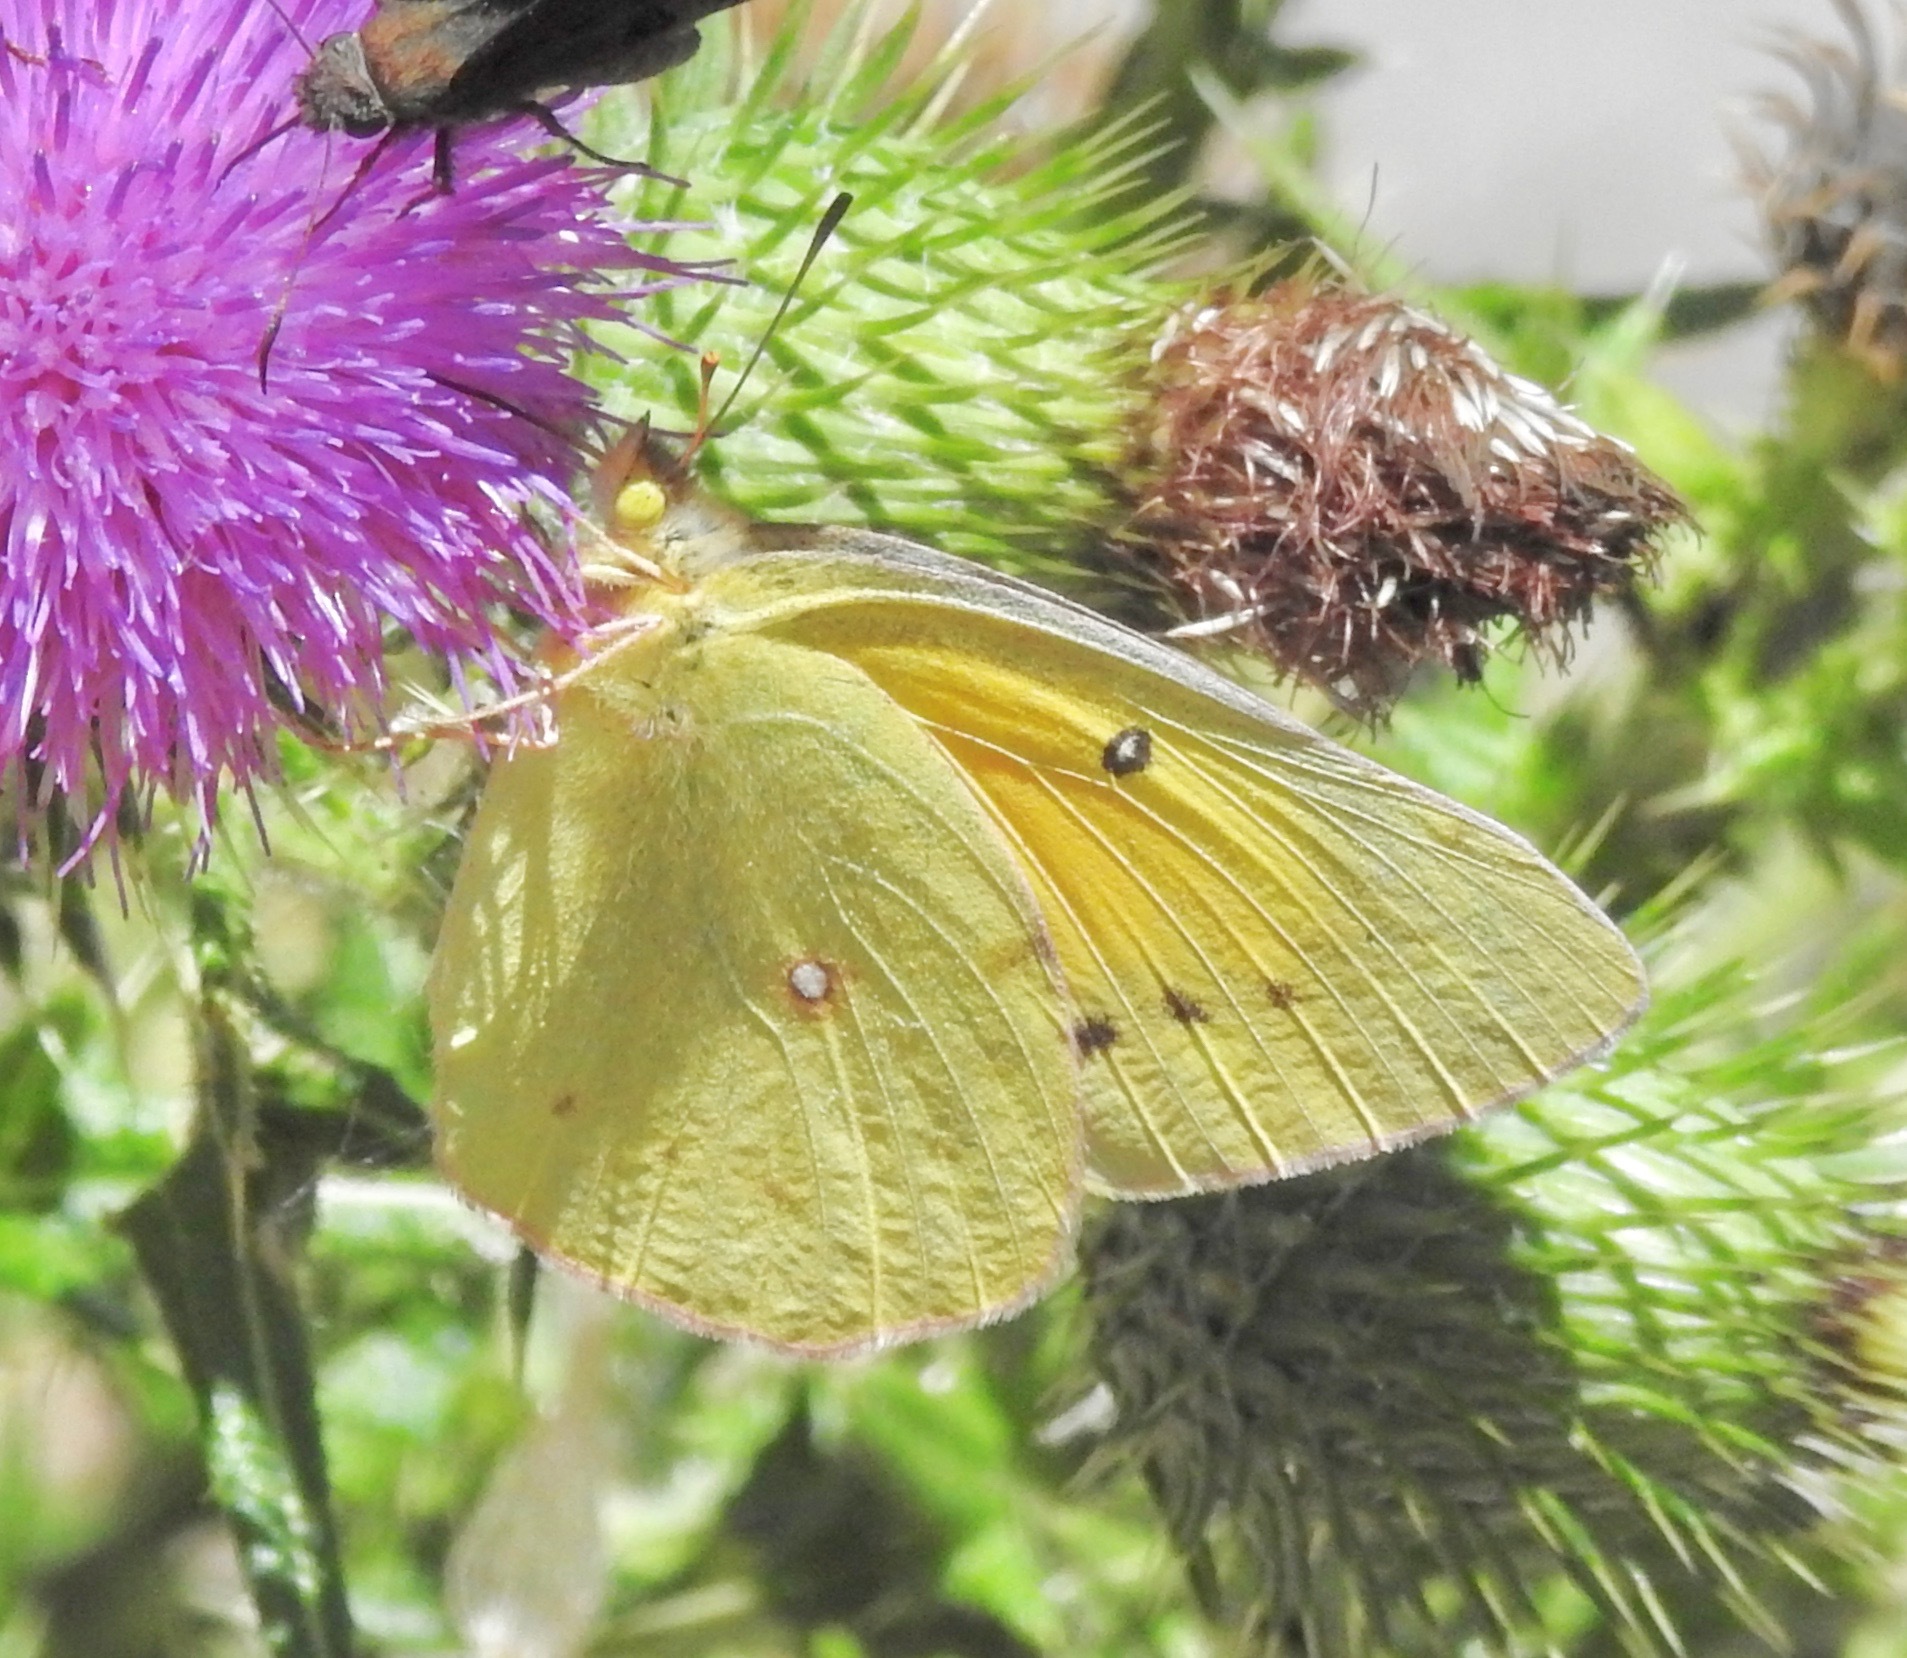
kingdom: Animalia
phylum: Arthropoda
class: Insecta
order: Lepidoptera
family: Pieridae
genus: Colias
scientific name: Colias eurytheme
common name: Alfalfa butterfly
